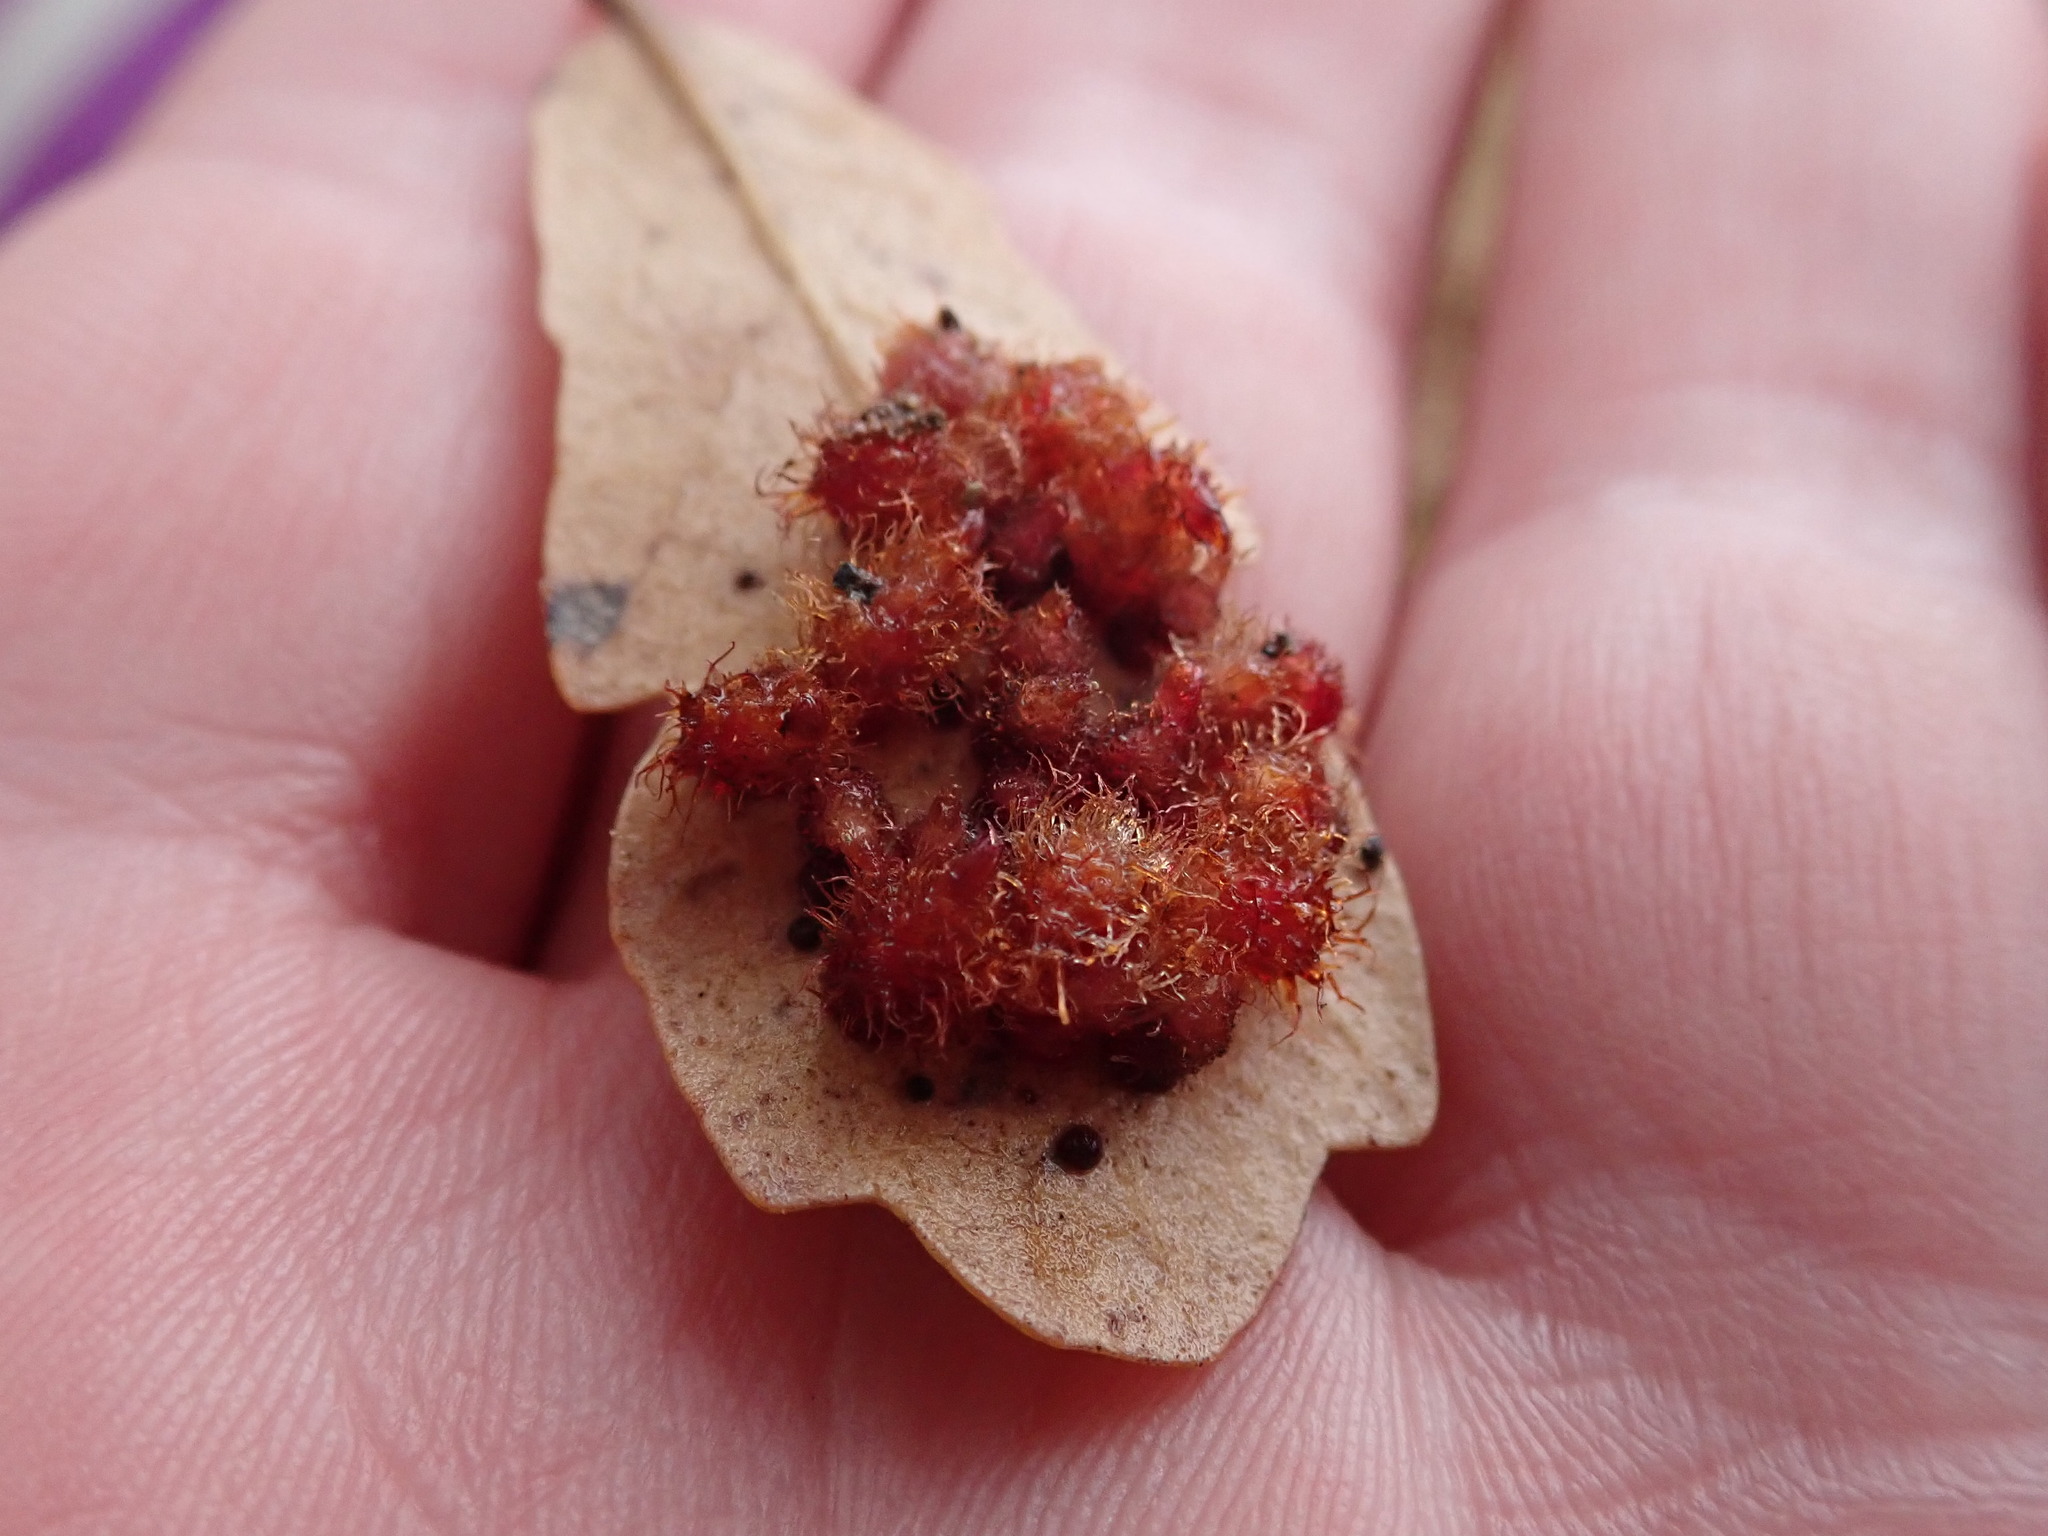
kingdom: Animalia
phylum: Arthropoda
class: Insecta
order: Hymenoptera
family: Cynipidae
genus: Andricus
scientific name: Andricus
